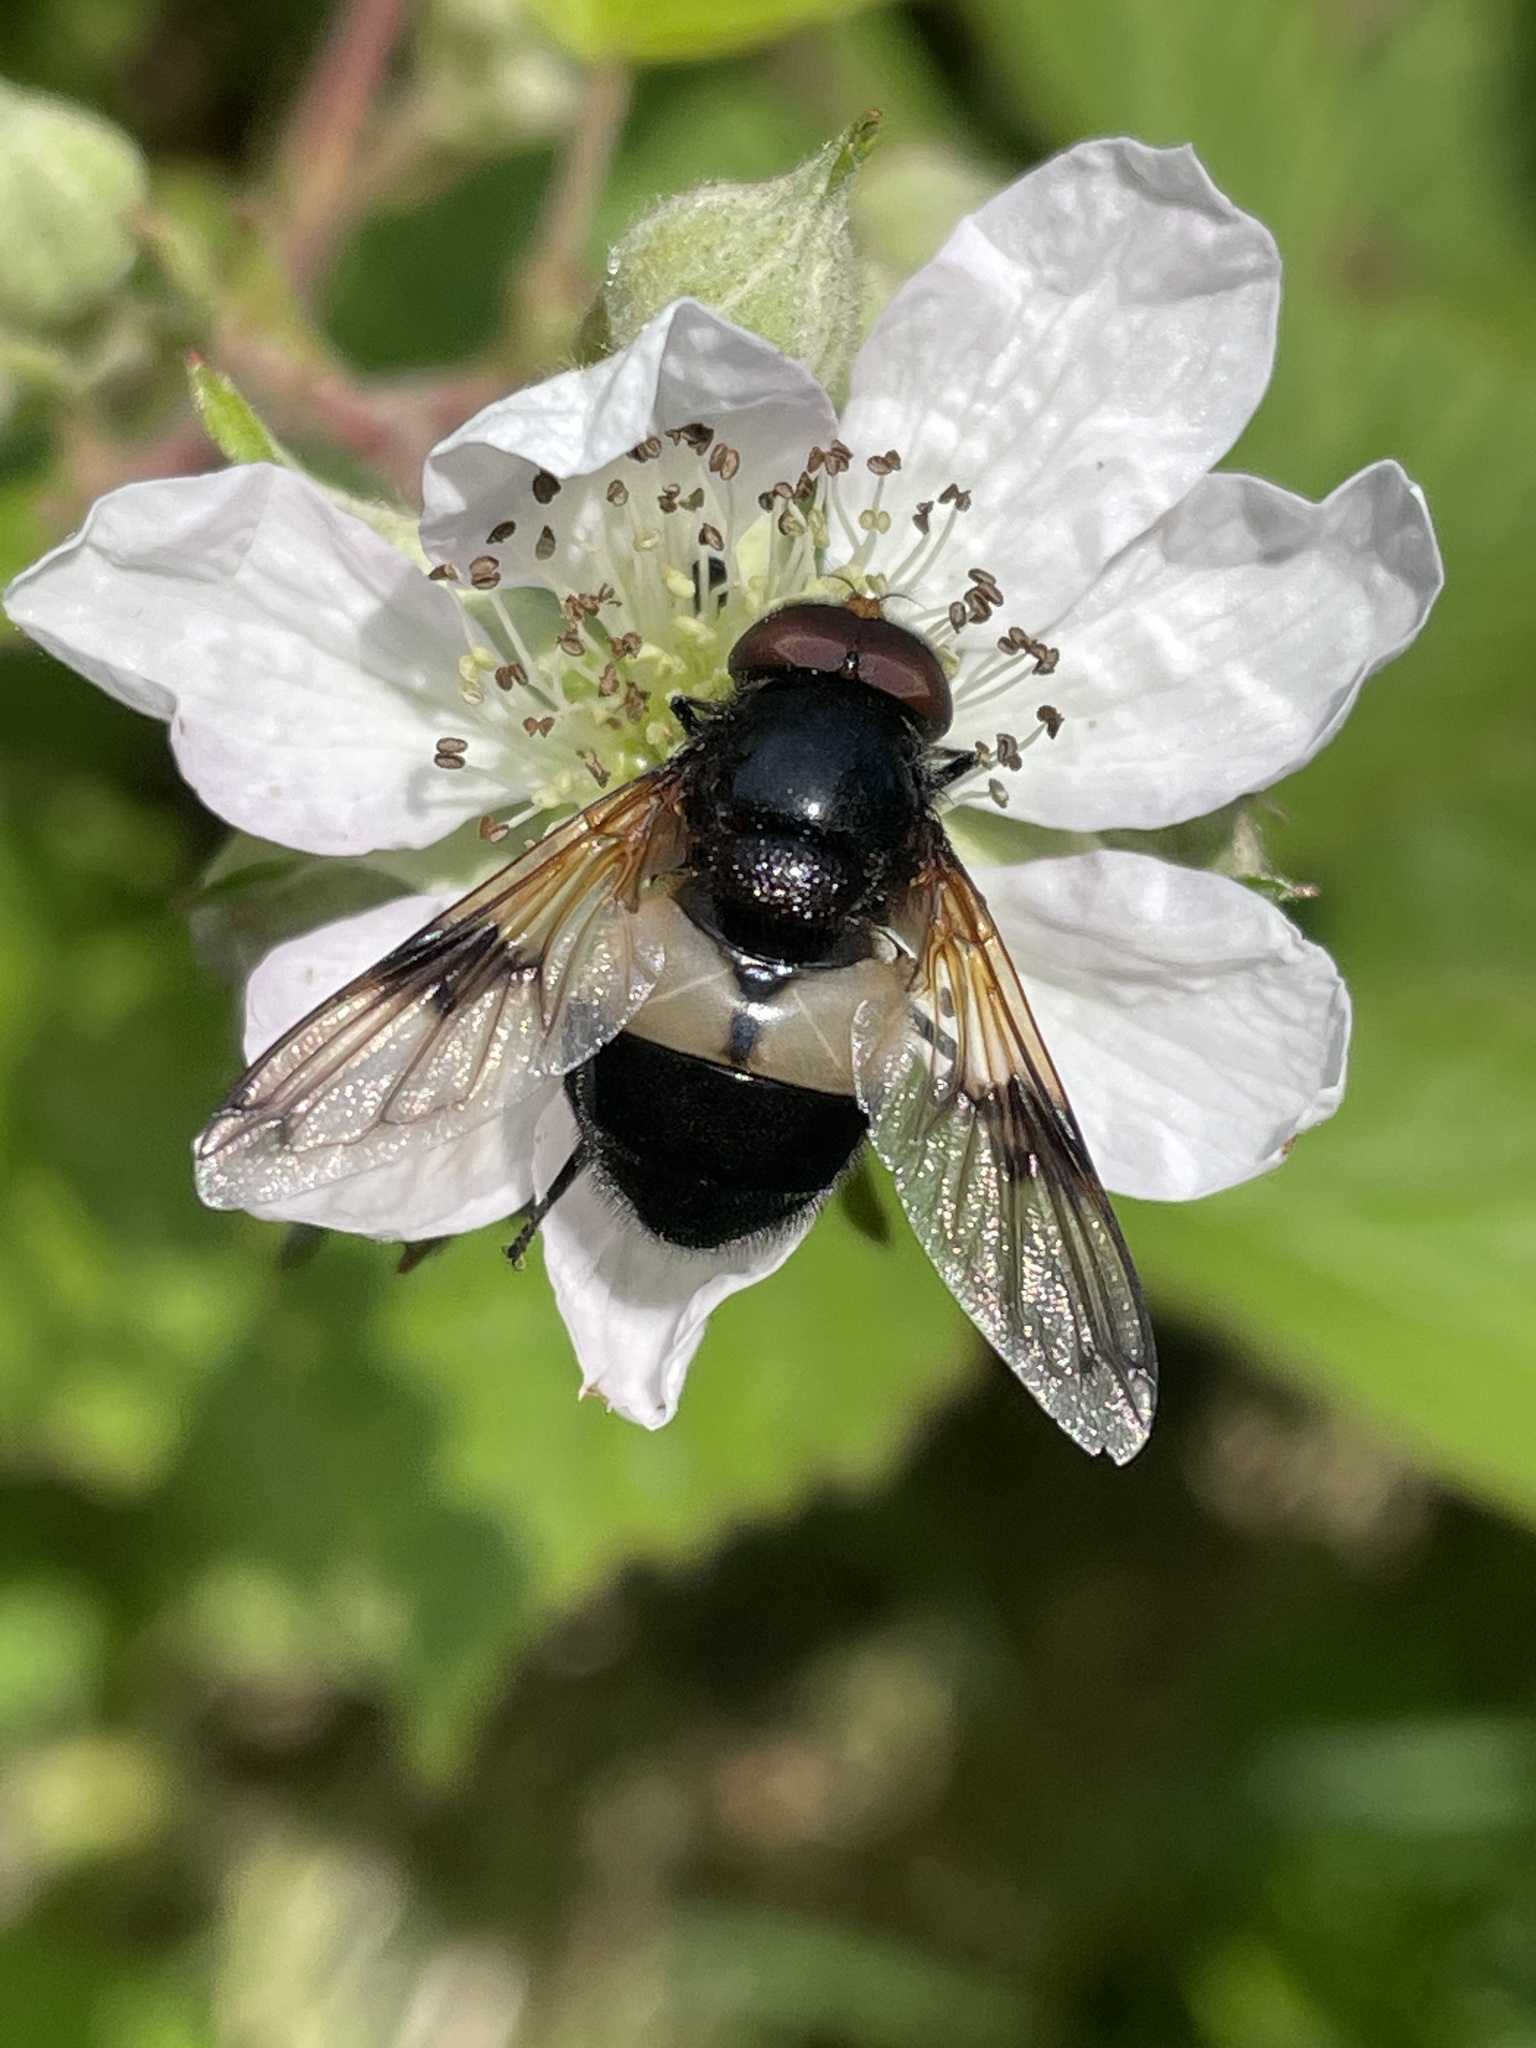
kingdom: Animalia
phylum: Arthropoda
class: Insecta
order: Diptera
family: Syrphidae
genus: Volucella
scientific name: Volucella pellucens
